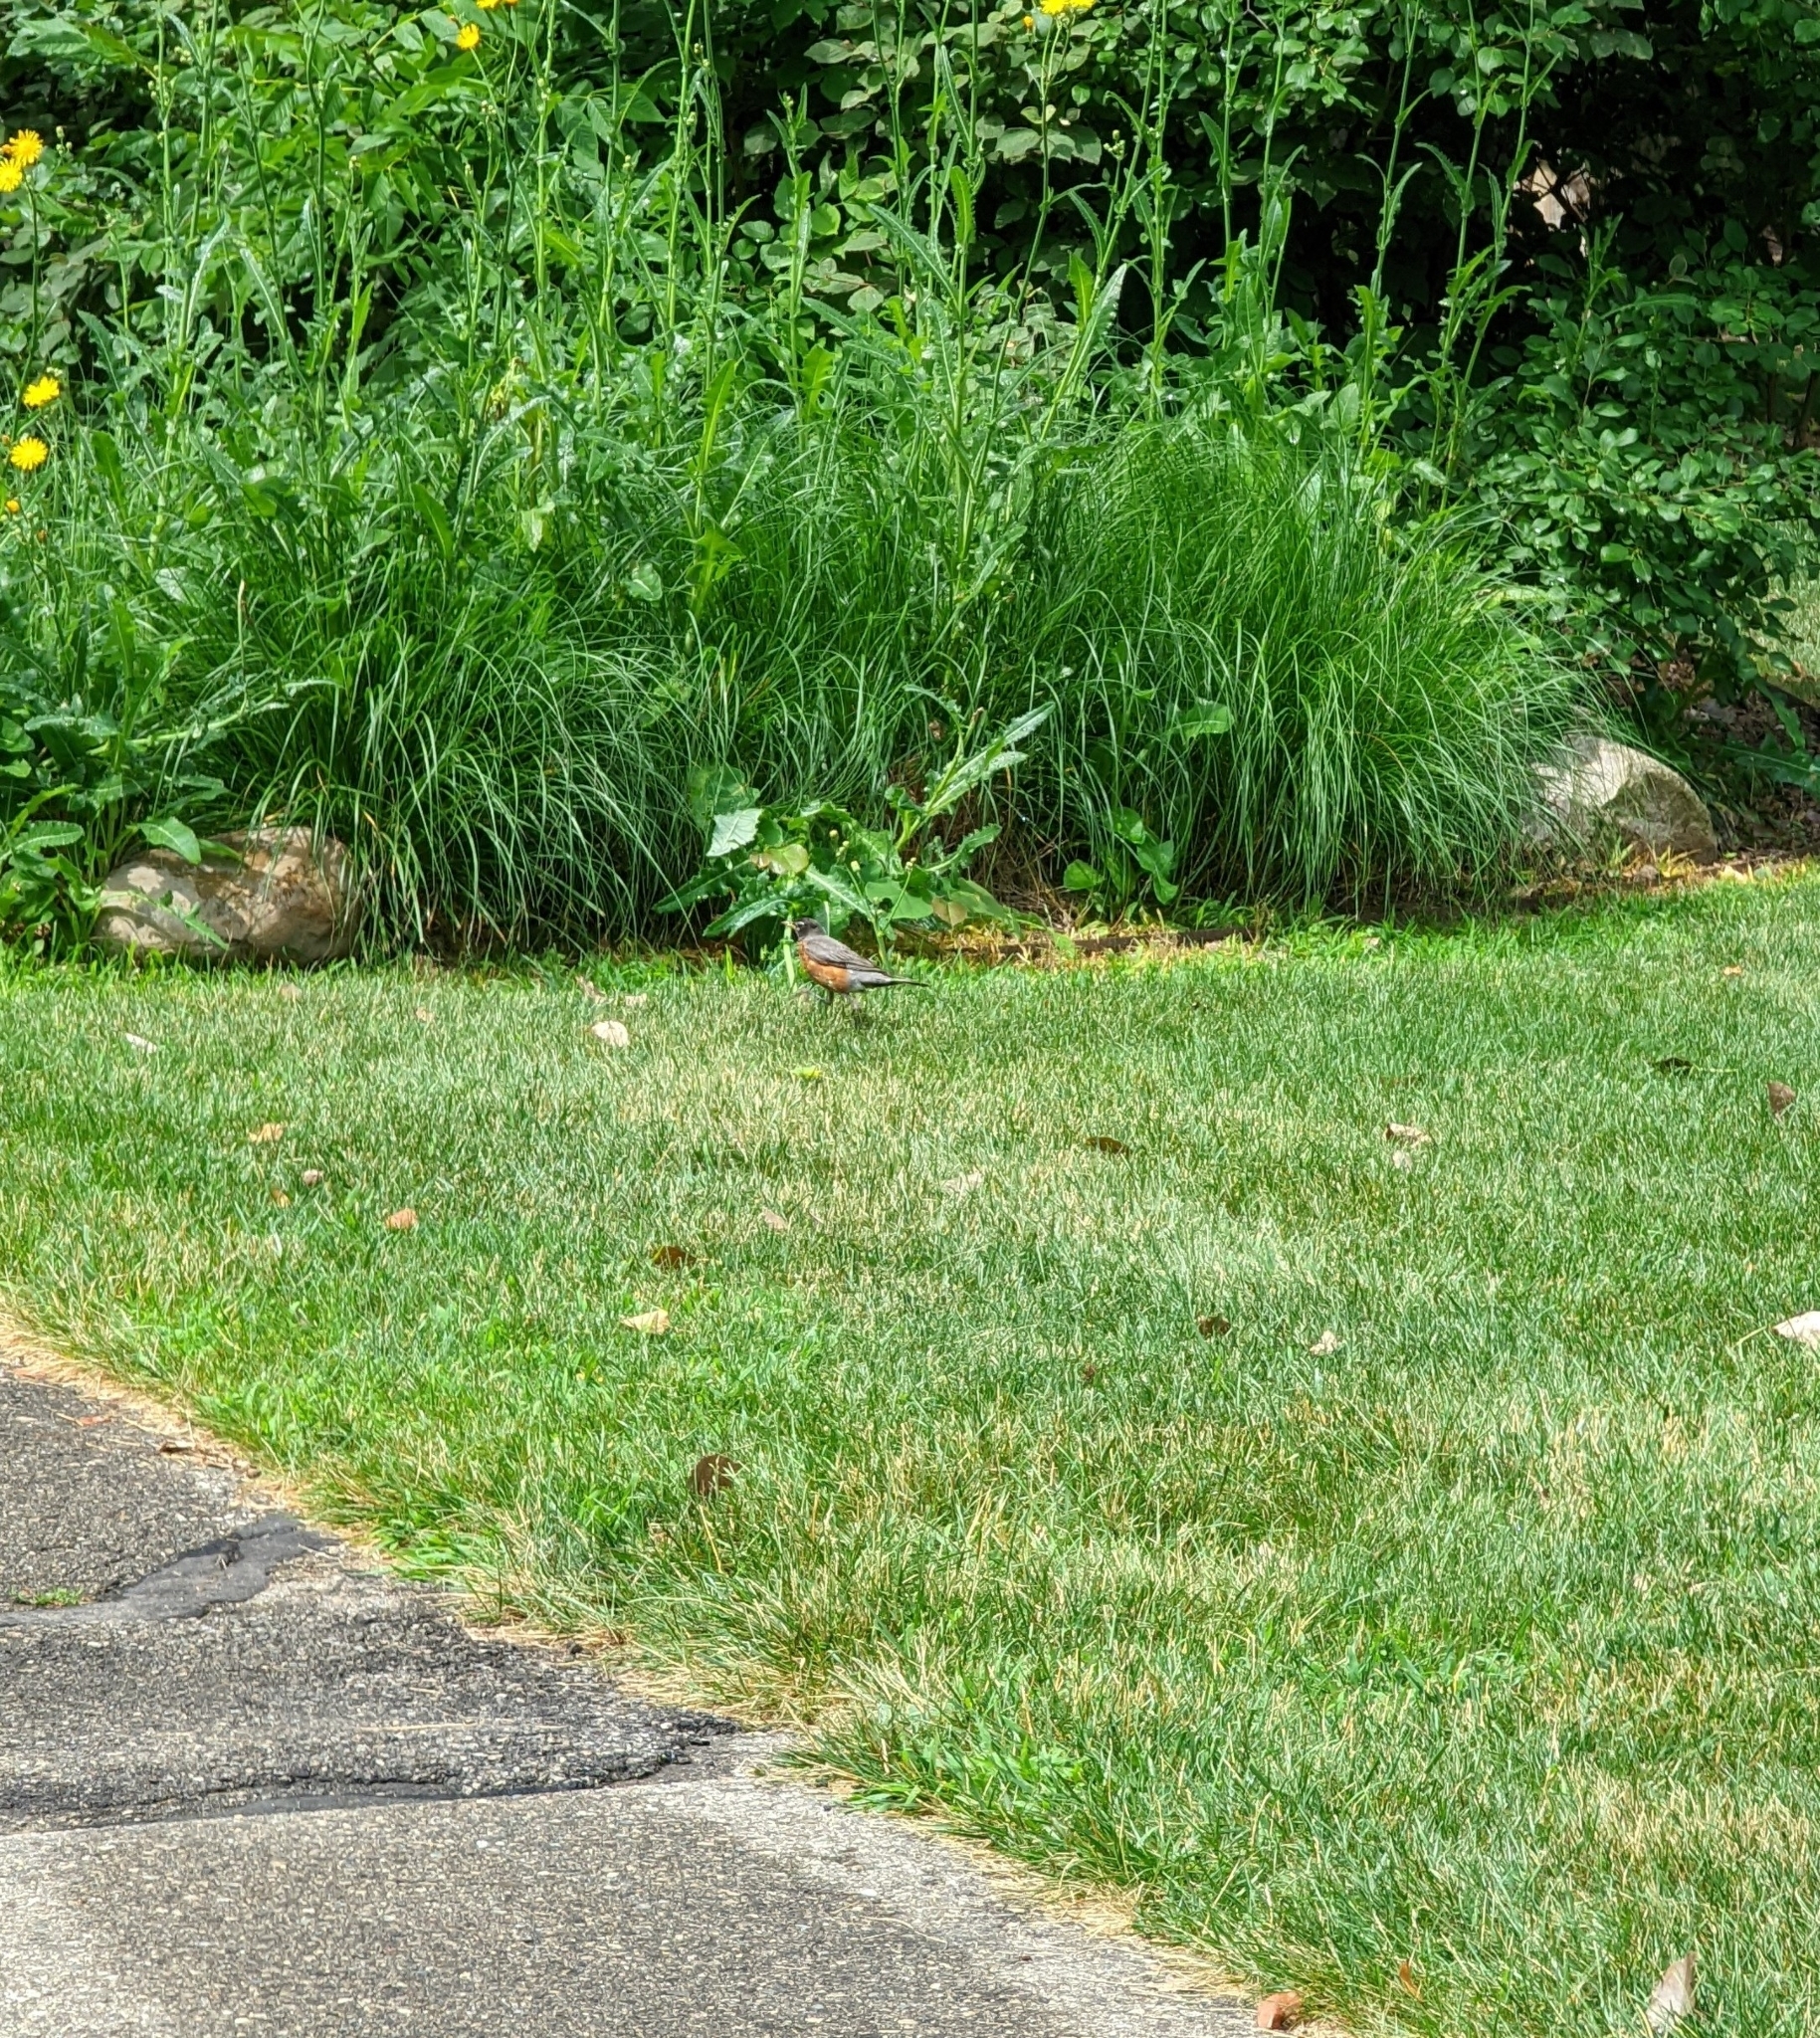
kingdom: Animalia
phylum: Chordata
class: Aves
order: Passeriformes
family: Turdidae
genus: Turdus
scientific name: Turdus migratorius
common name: American robin
